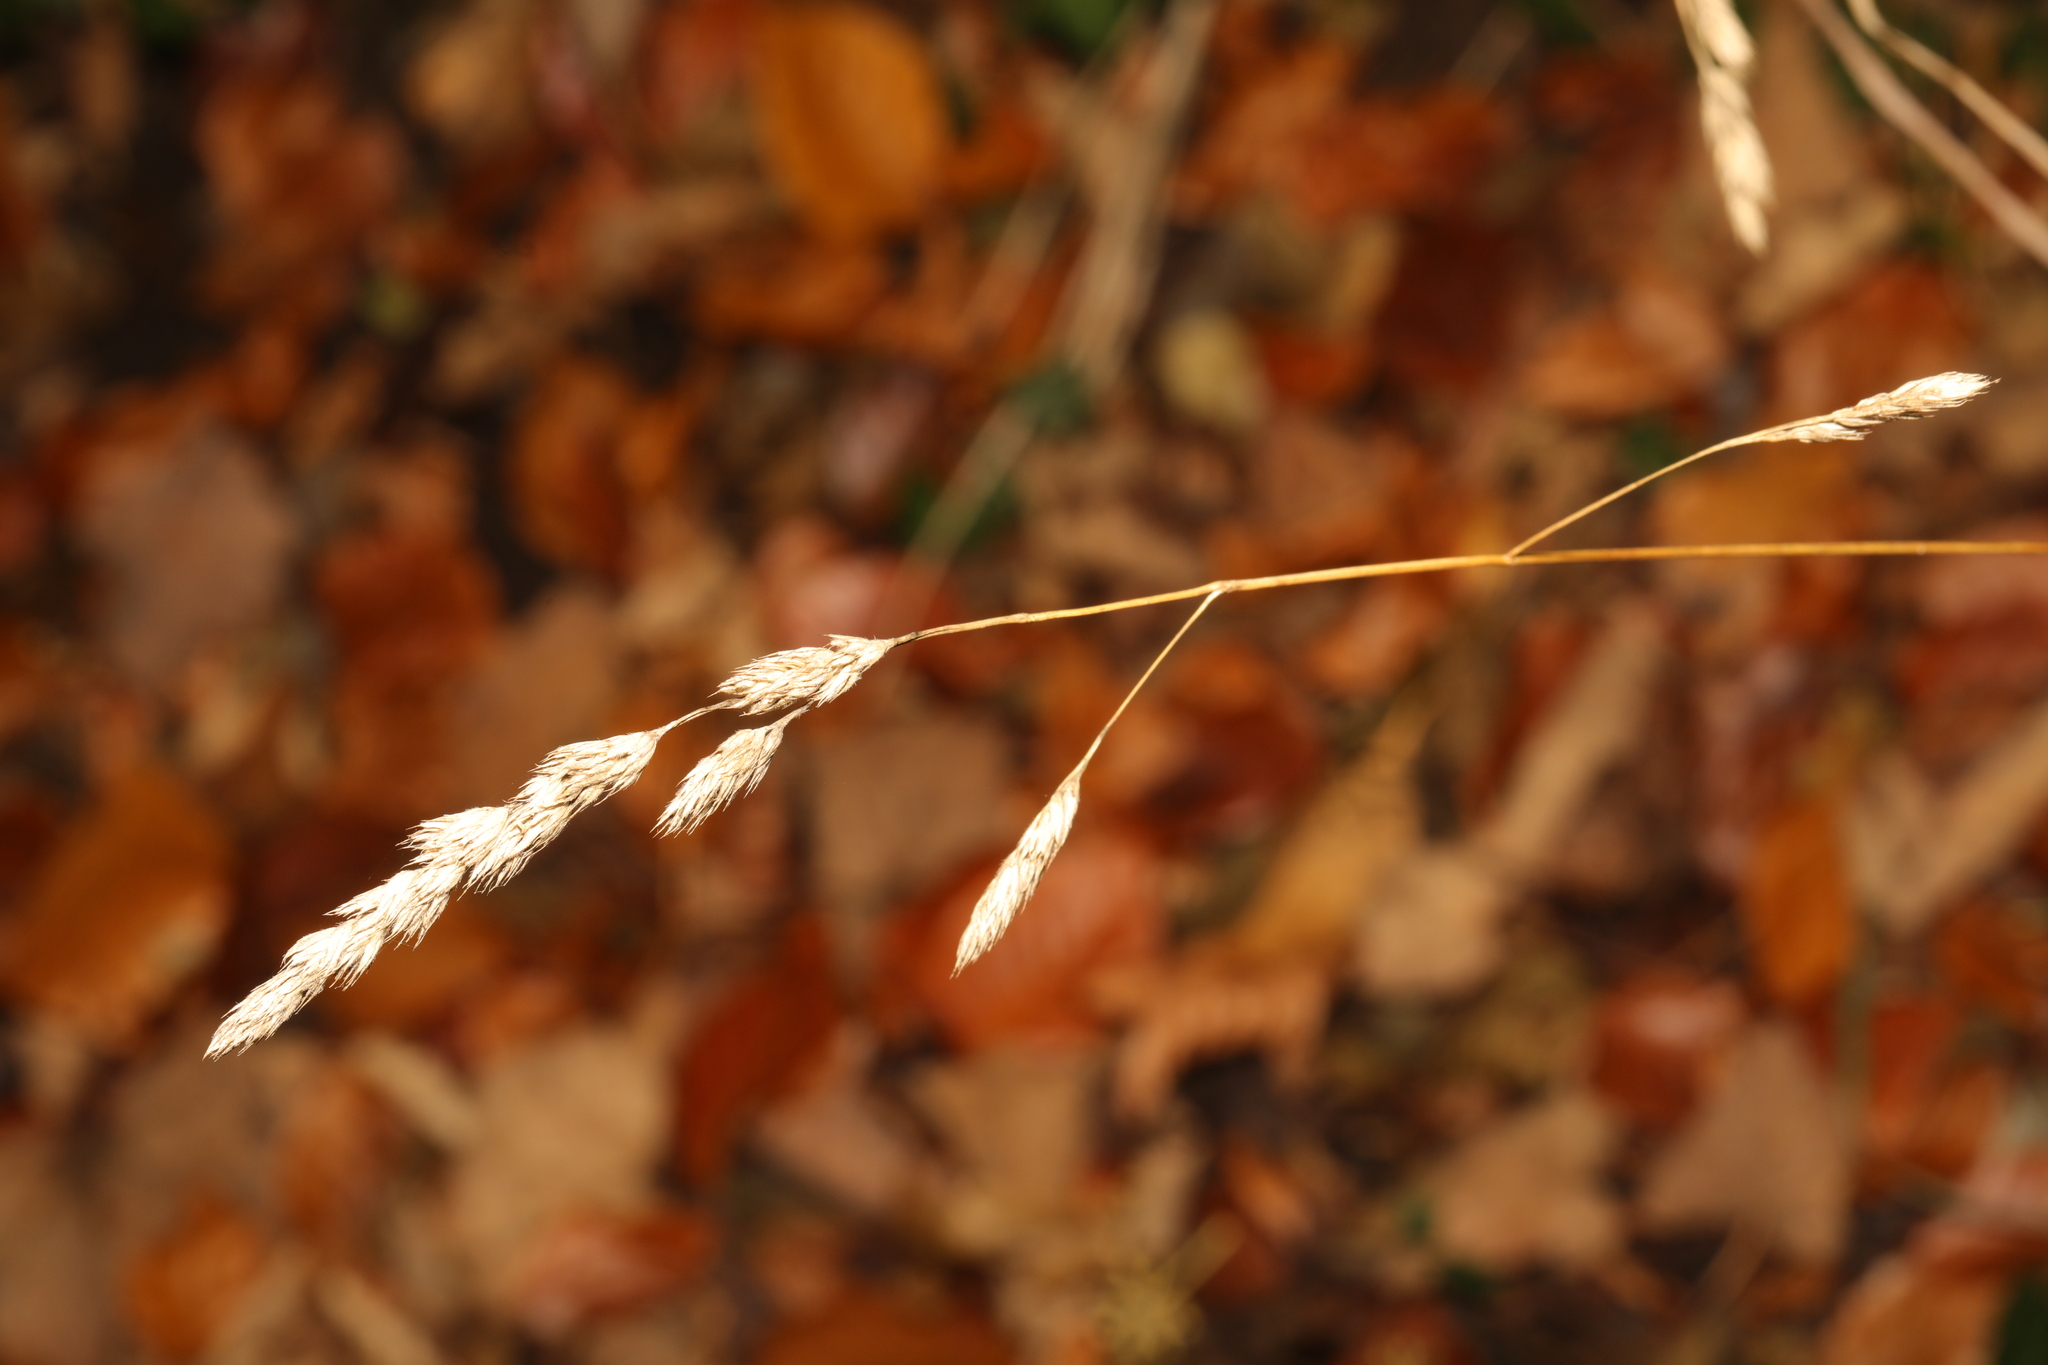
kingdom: Plantae
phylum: Tracheophyta
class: Liliopsida
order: Poales
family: Poaceae
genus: Dactylis
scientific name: Dactylis glomerata
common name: Orchardgrass
